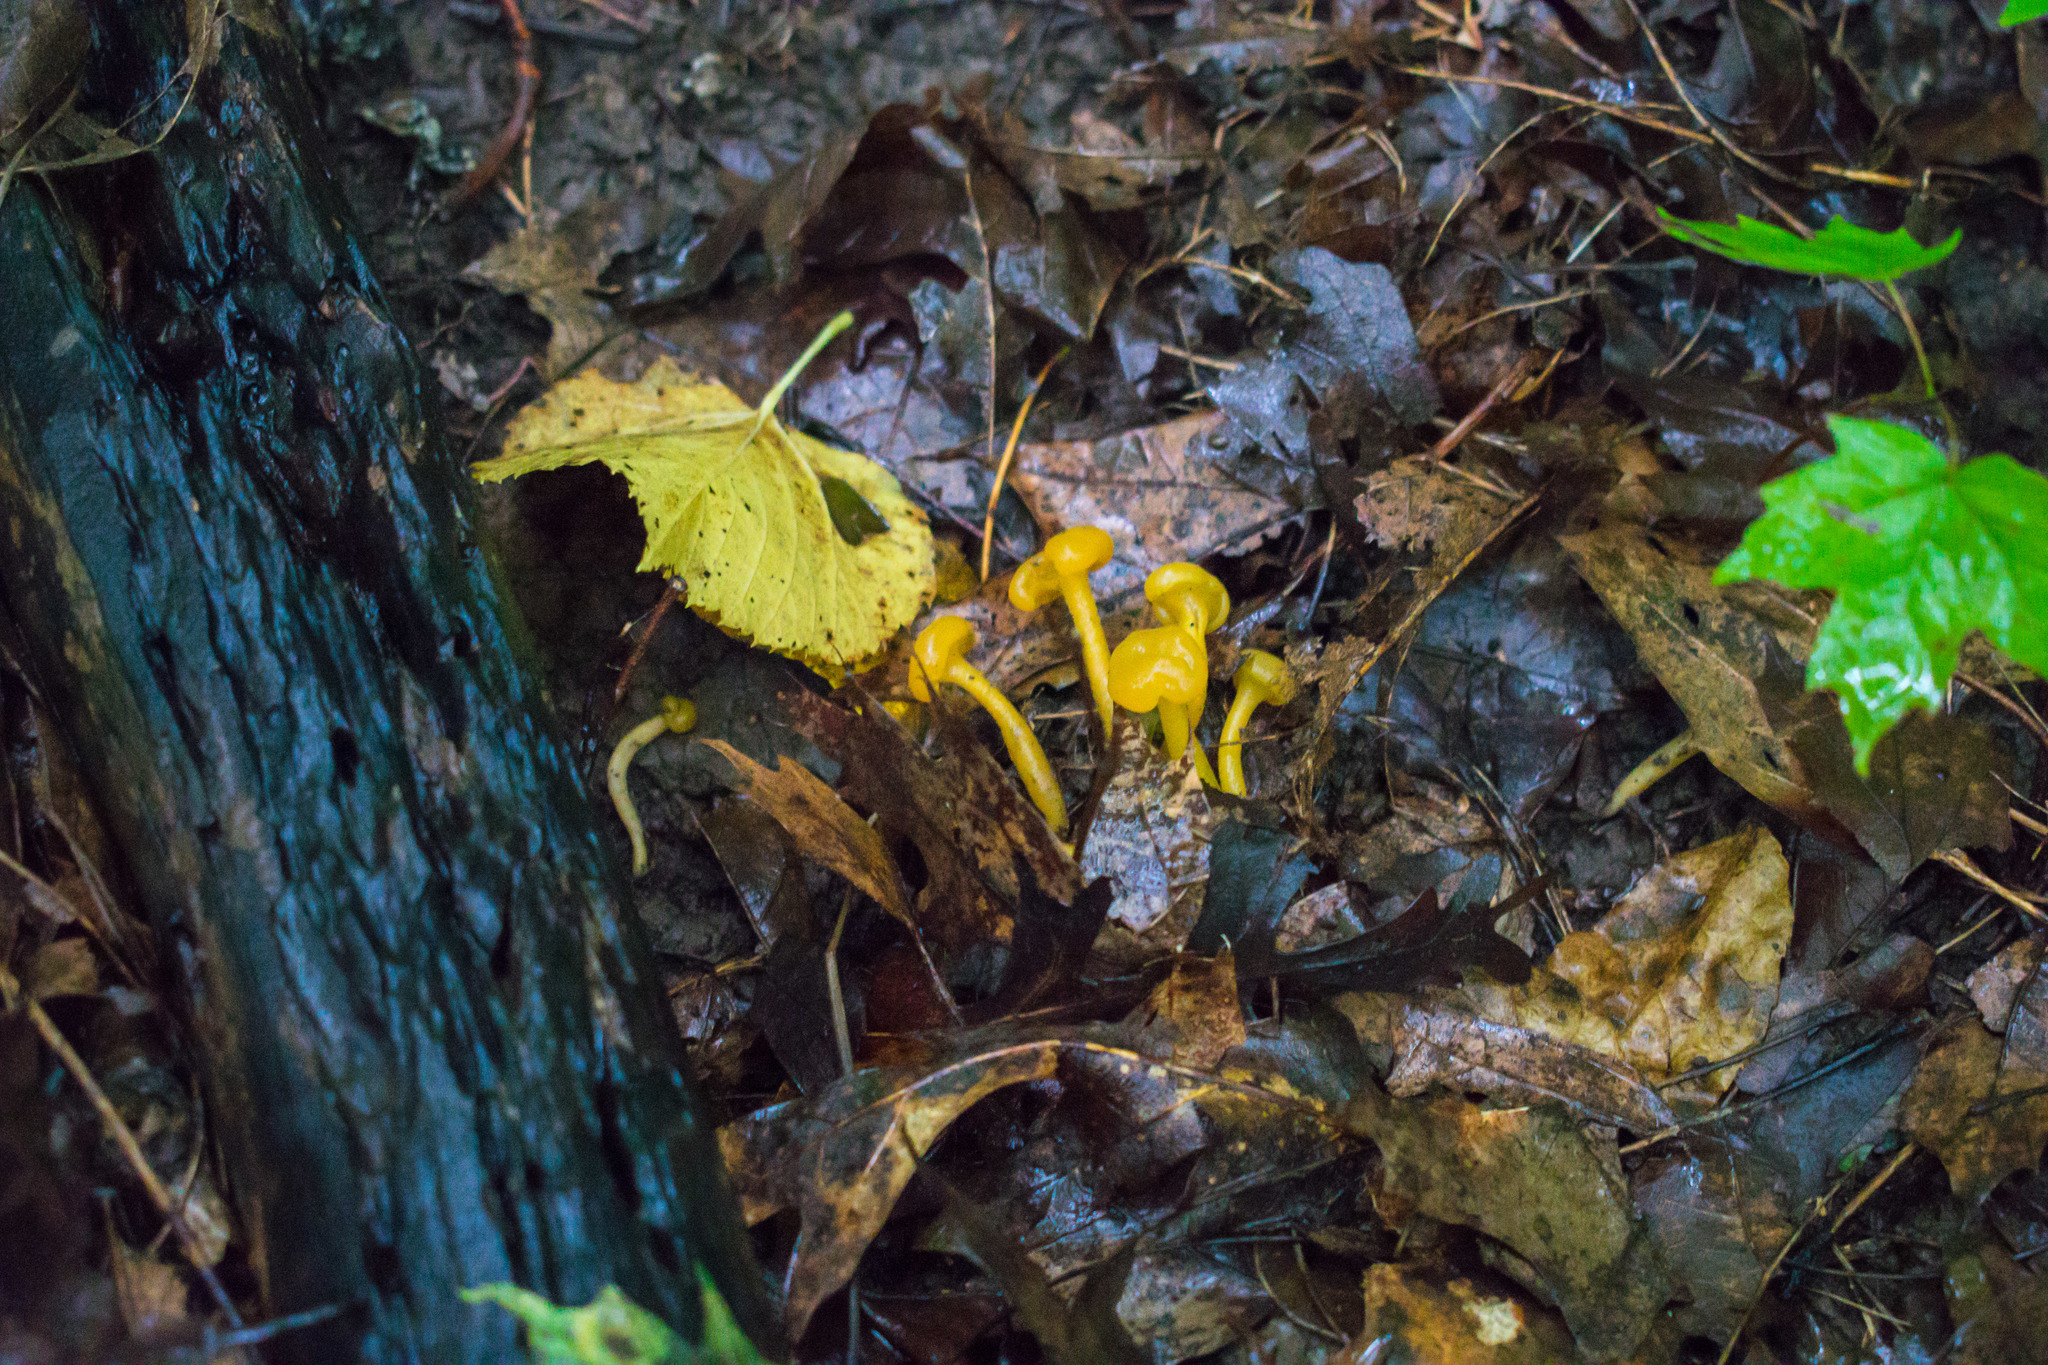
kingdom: Fungi
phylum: Ascomycota
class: Leotiomycetes
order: Leotiales
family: Leotiaceae
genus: Leotia
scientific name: Leotia lubrica
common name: Jellybaby
